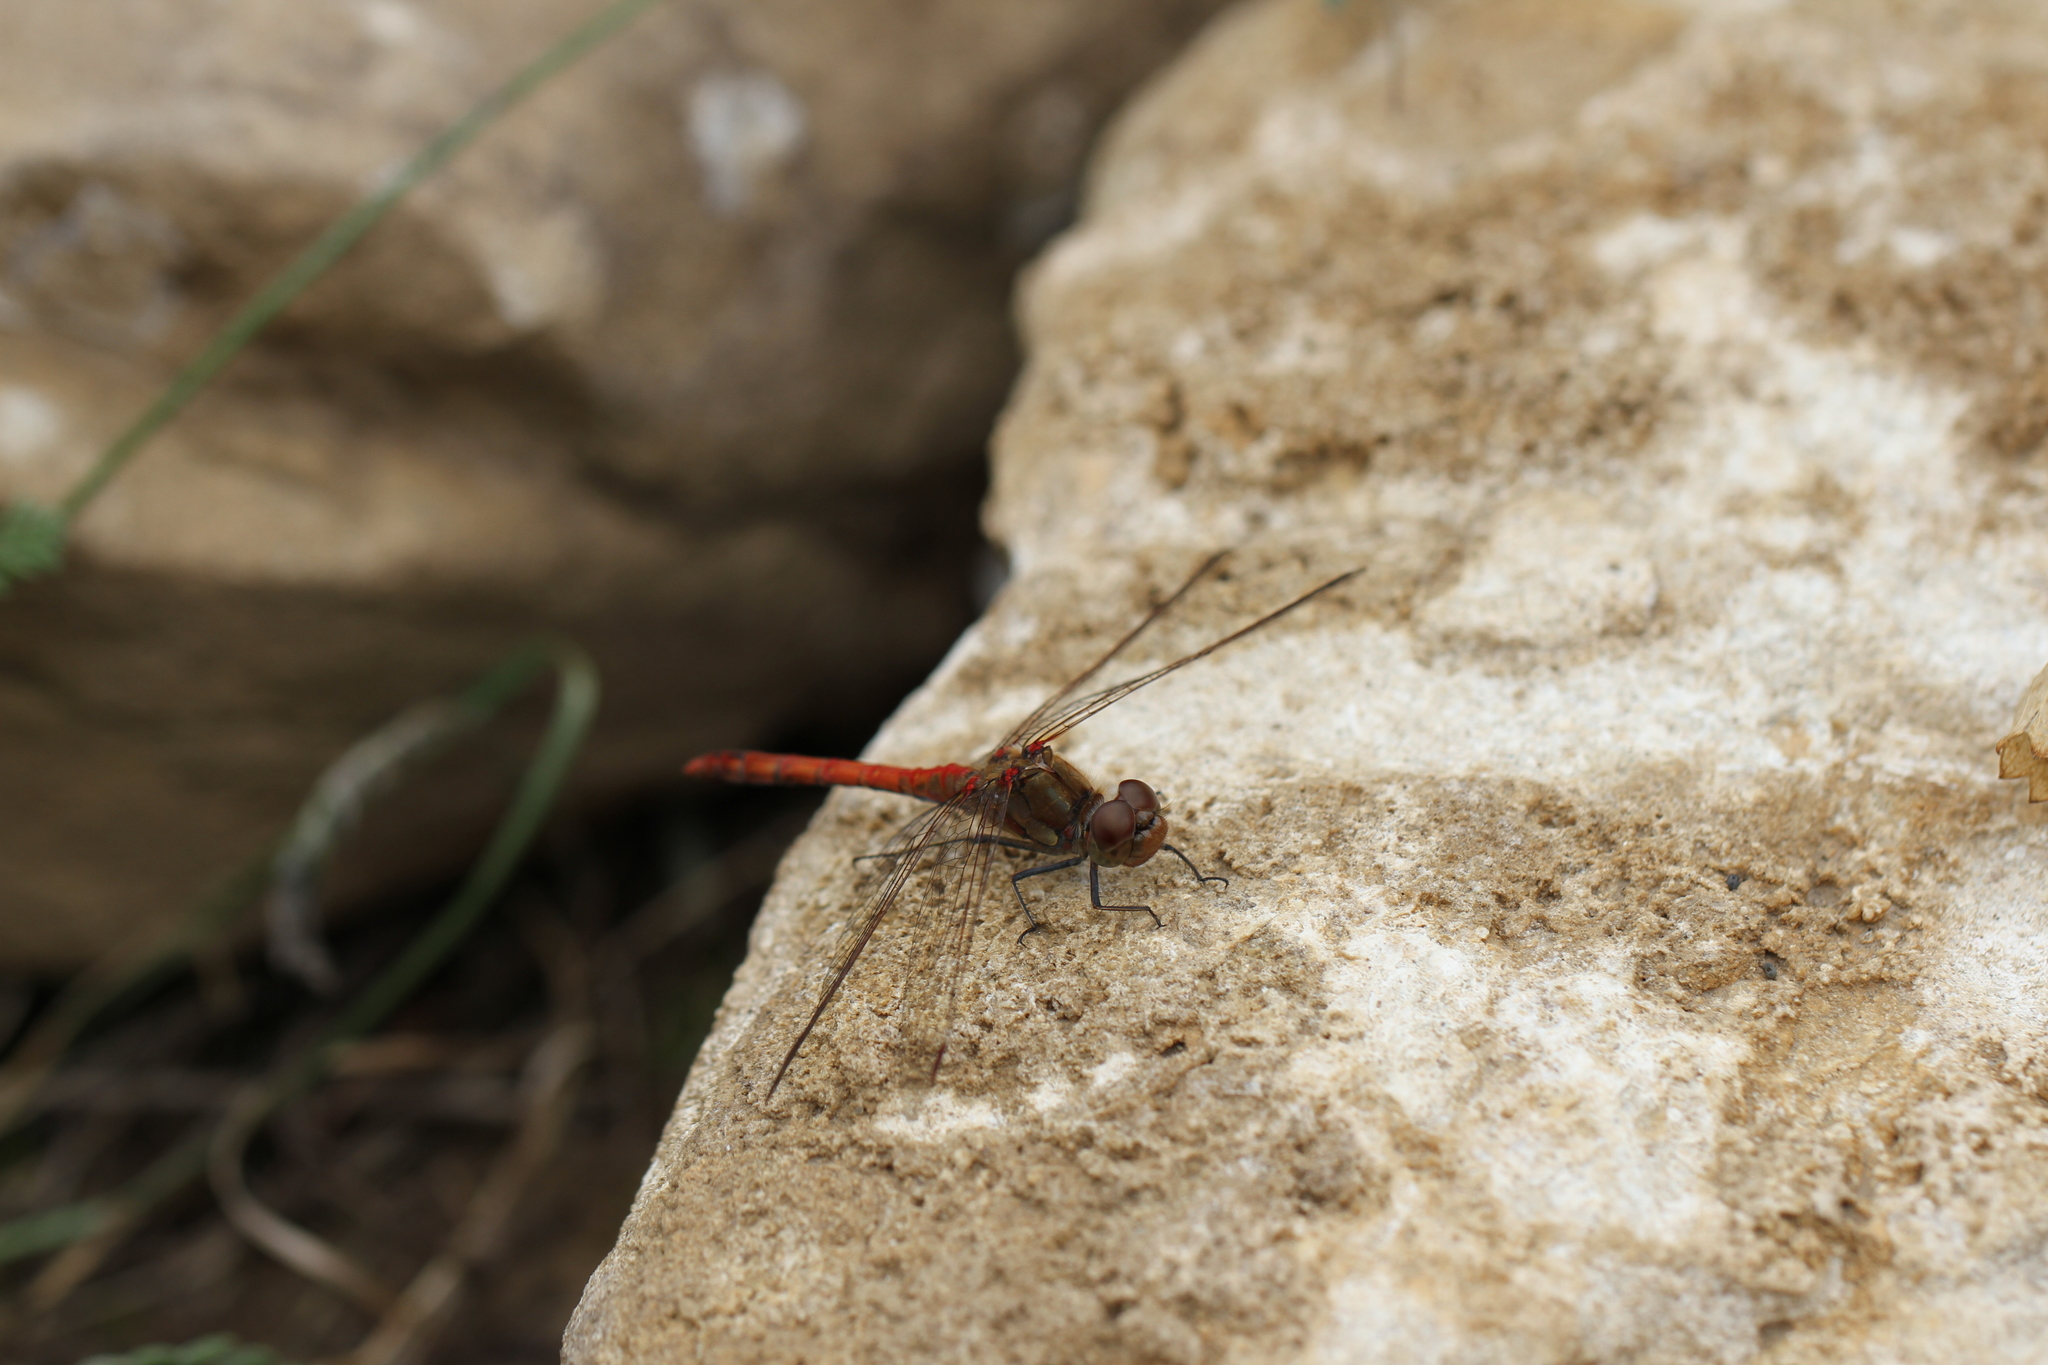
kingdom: Animalia
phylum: Arthropoda
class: Insecta
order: Odonata
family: Libellulidae
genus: Sympetrum
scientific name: Sympetrum striolatum
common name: Common darter
